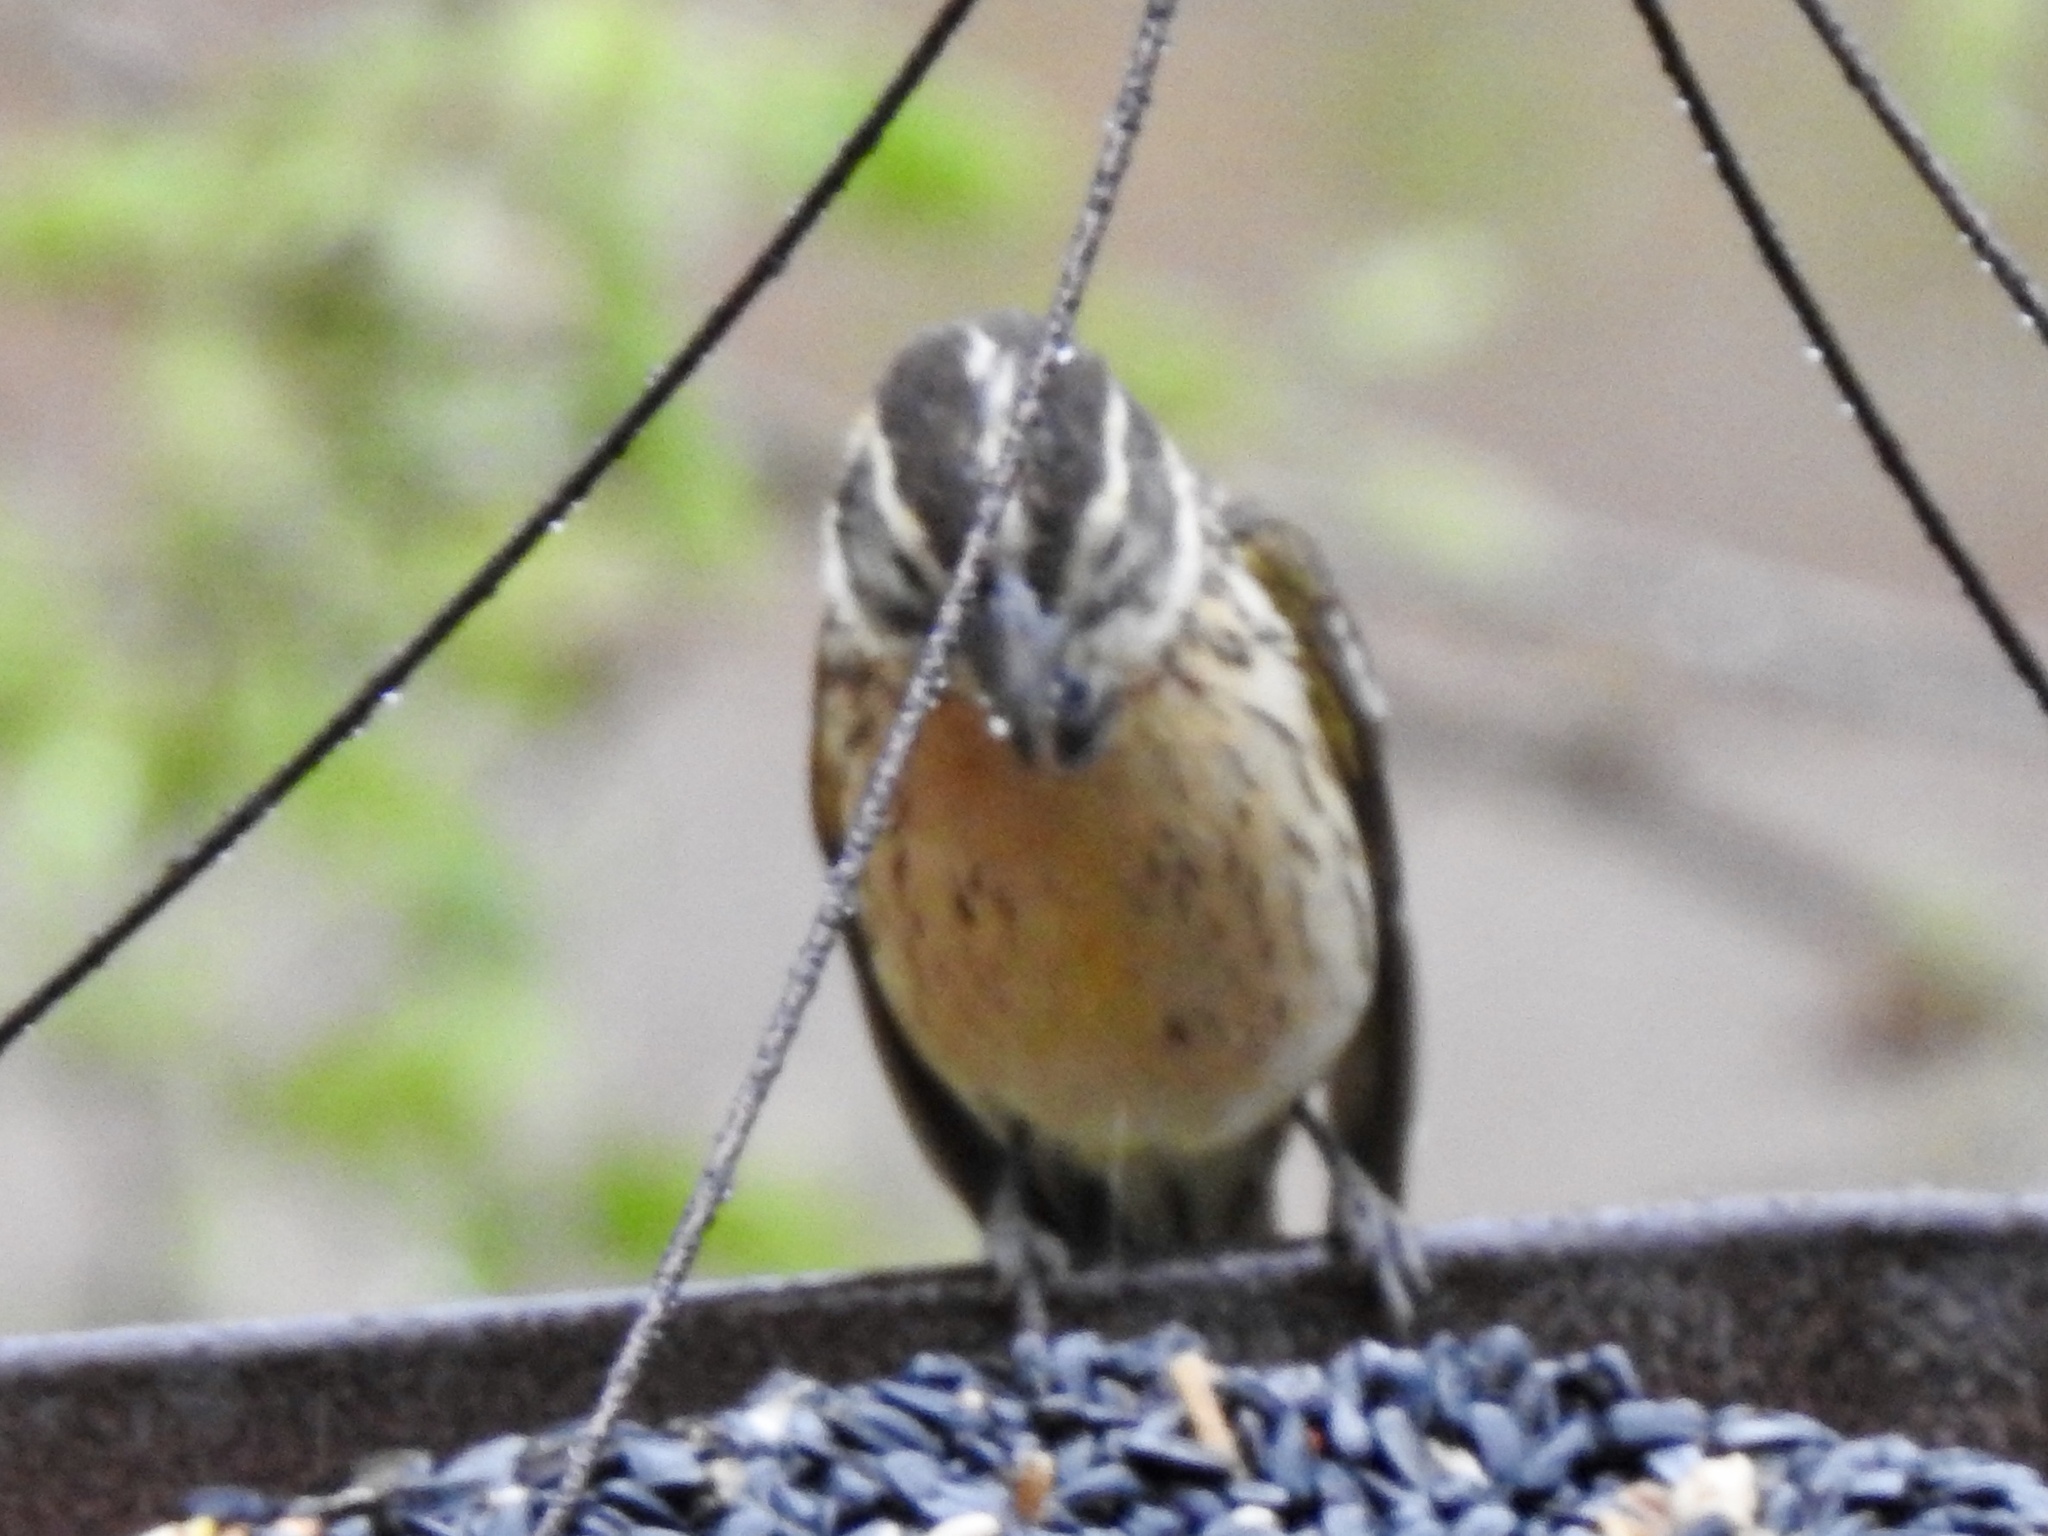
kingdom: Animalia
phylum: Chordata
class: Aves
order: Passeriformes
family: Cardinalidae
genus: Pheucticus
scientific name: Pheucticus melanocephalus
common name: Black-headed grosbeak
